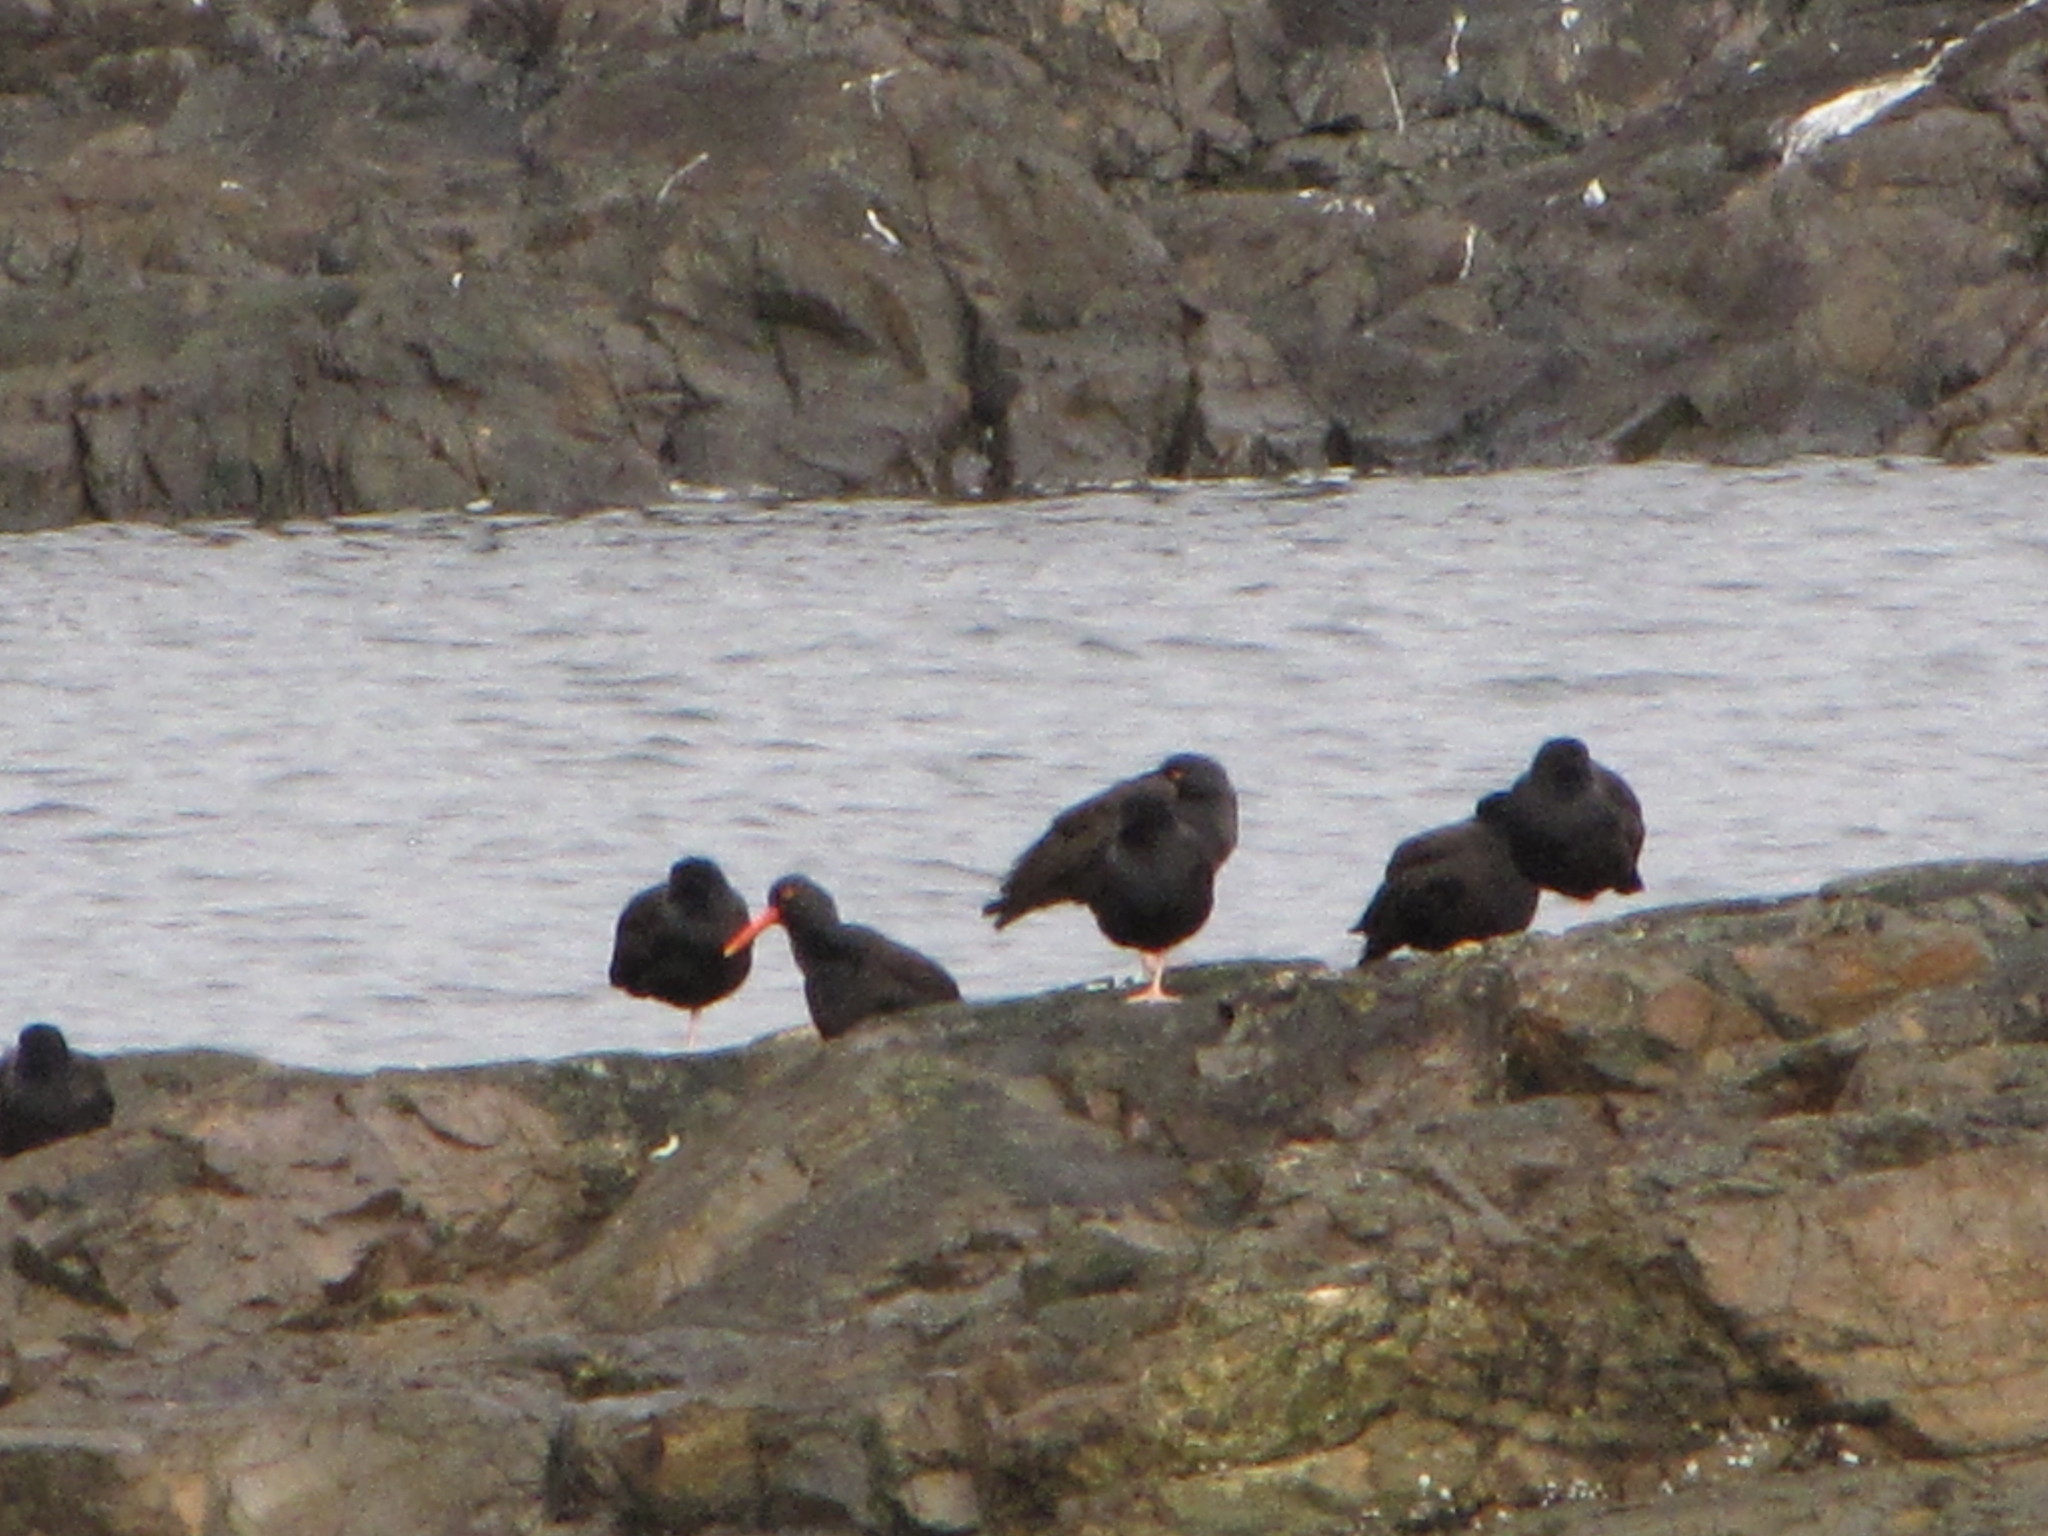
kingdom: Animalia
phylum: Chordata
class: Aves
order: Charadriiformes
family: Haematopodidae
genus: Haematopus
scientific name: Haematopus bachmani
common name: Black oystercatcher
